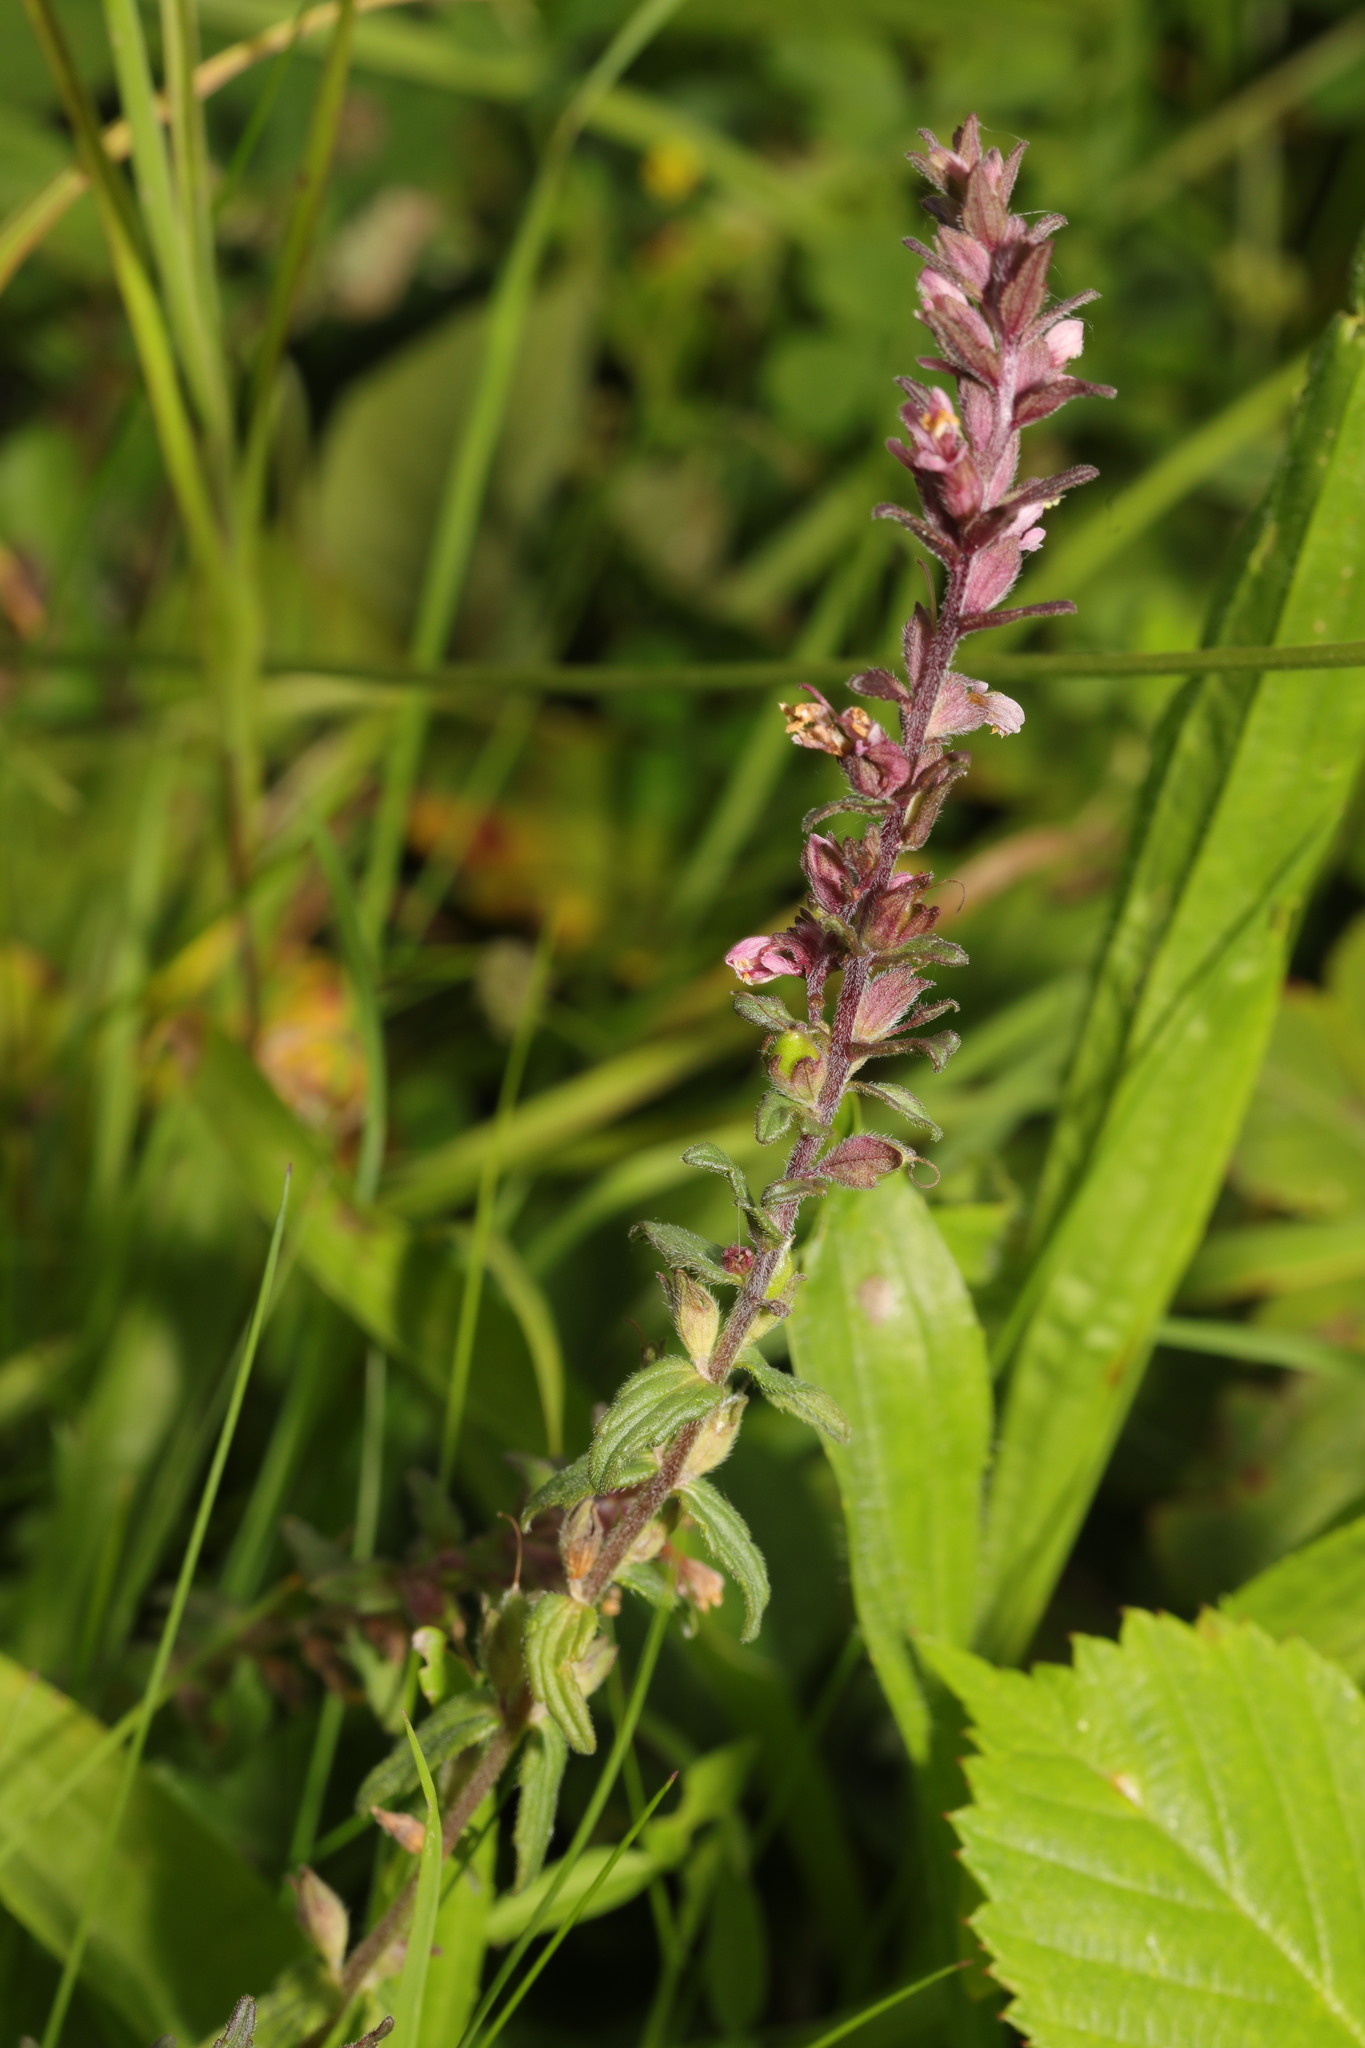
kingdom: Plantae
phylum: Tracheophyta
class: Magnoliopsida
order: Lamiales
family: Orobanchaceae
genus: Odontites
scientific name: Odontites vulgaris
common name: Broomrape
